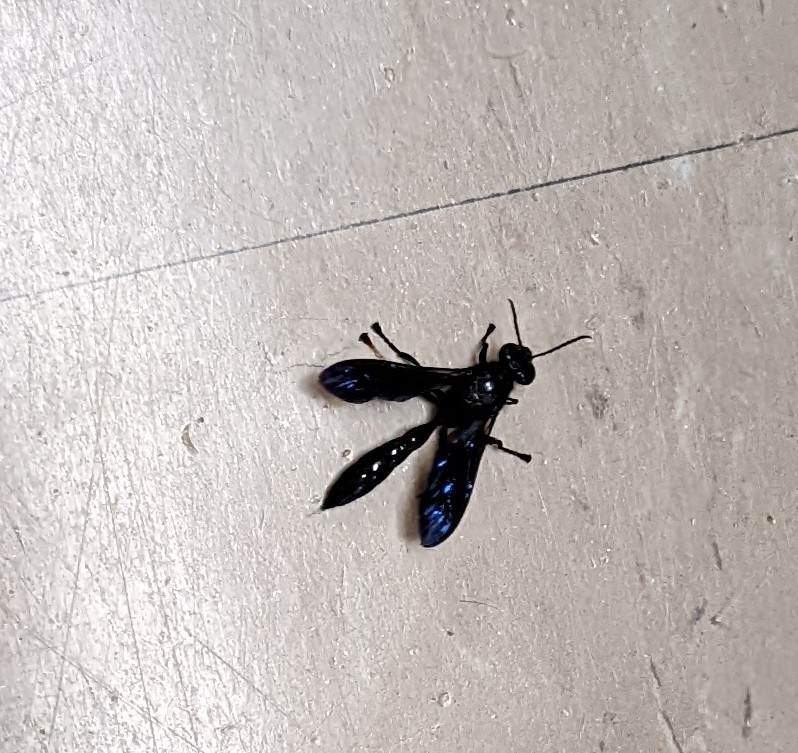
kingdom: Animalia
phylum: Arthropoda
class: Insecta
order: Hymenoptera
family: Crabronidae
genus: Trypoxylon
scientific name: Trypoxylon politum
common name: Organ-pipe mud-dauber wasp
